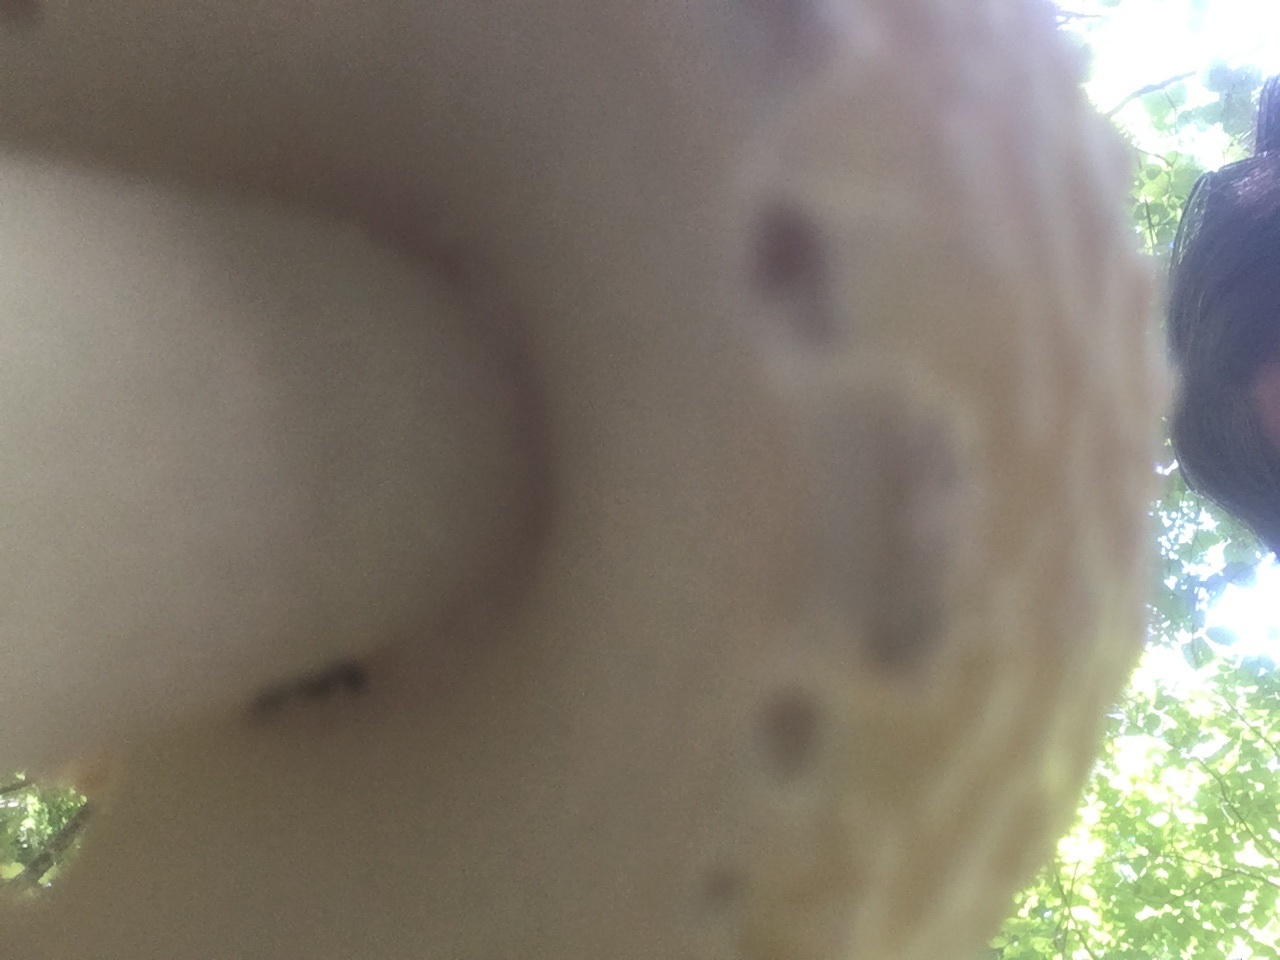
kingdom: Fungi
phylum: Basidiomycota
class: Agaricomycetes
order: Agaricales
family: Amanitaceae
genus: Amanita
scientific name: Amanita muscaria
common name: Fly agaric
